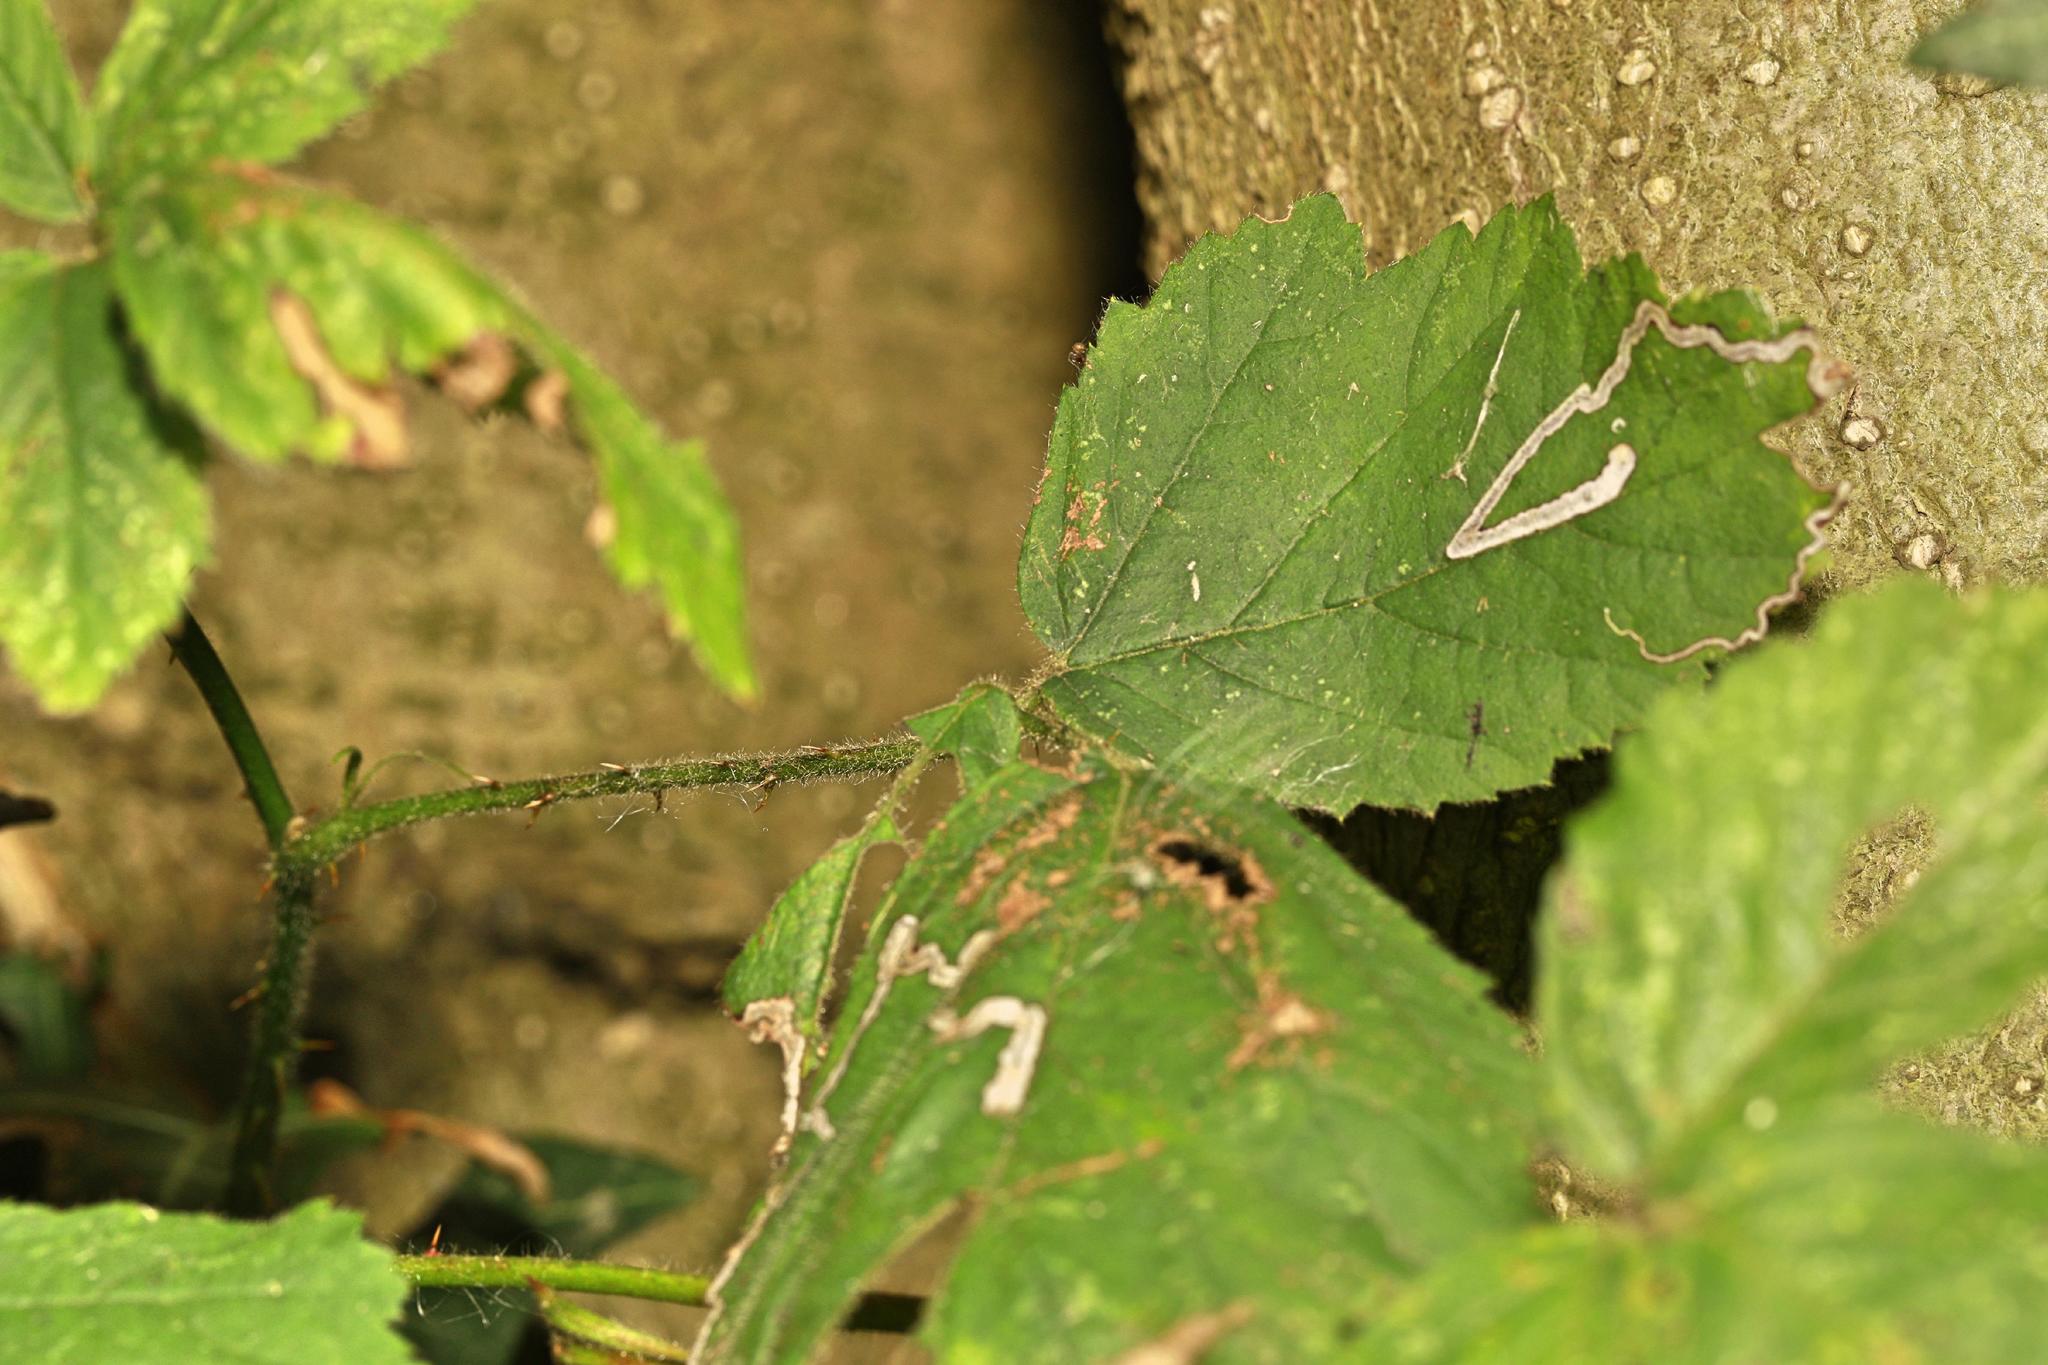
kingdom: Animalia
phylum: Arthropoda
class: Insecta
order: Lepidoptera
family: Nepticulidae
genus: Stigmella
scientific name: Stigmella aurella
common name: Golden pigmy
